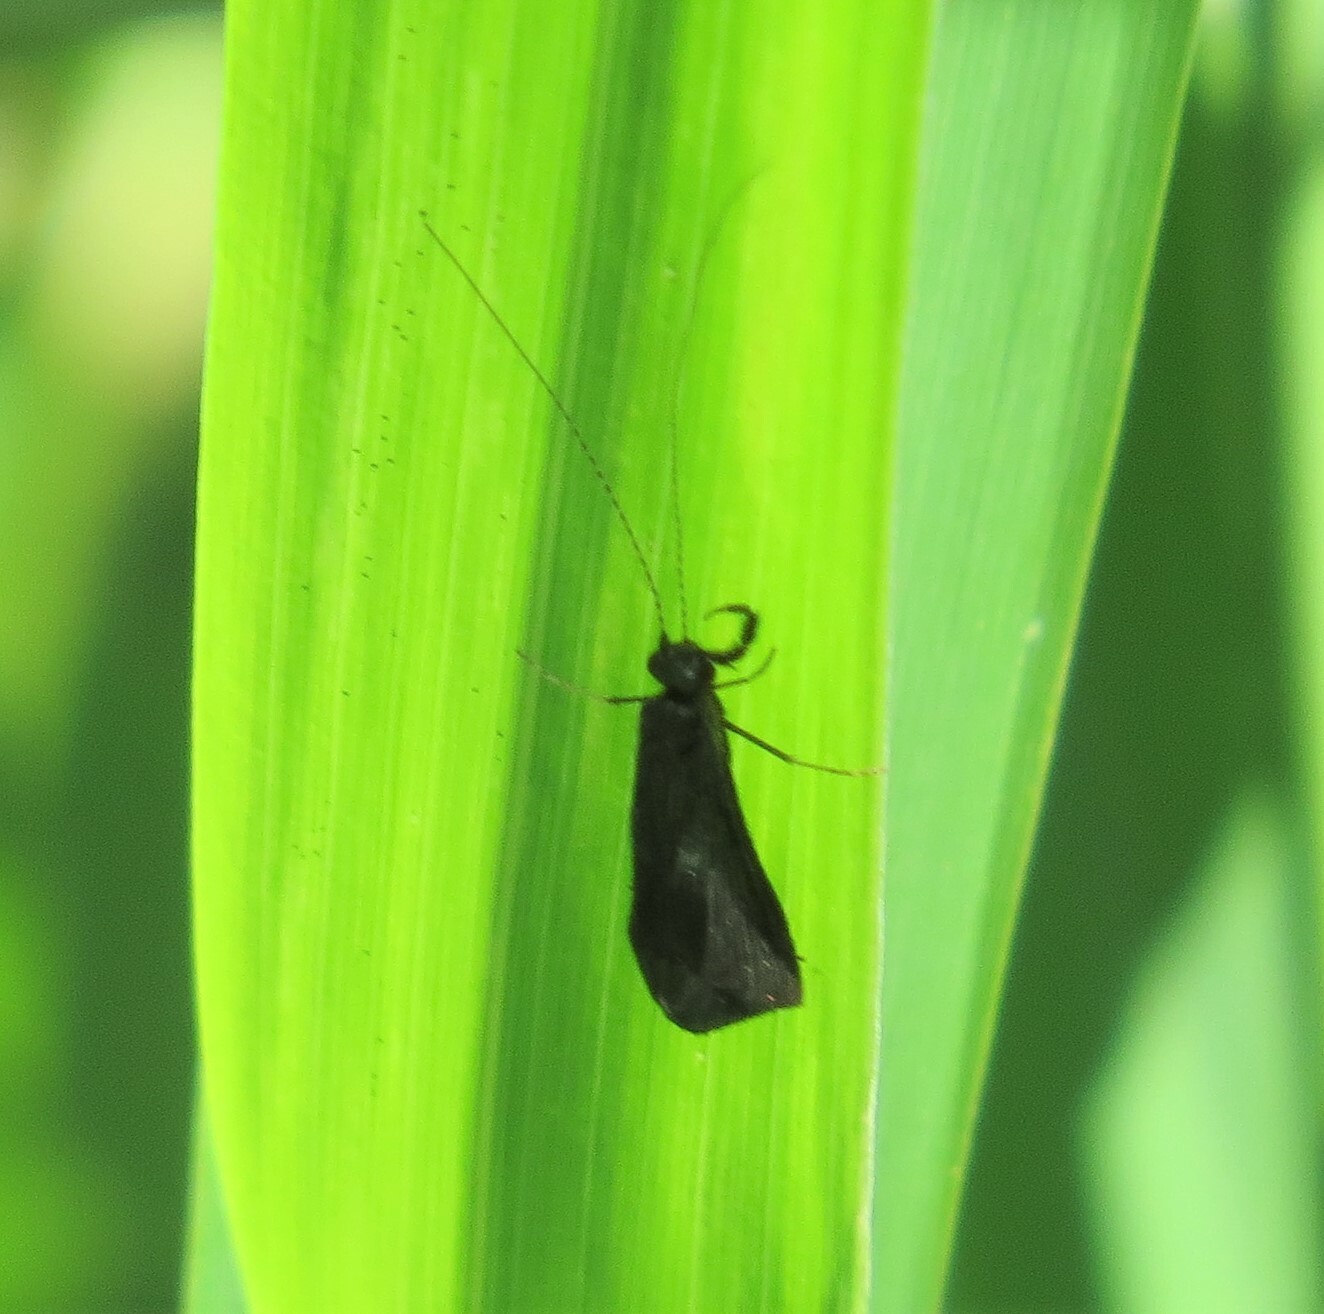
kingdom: Animalia
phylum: Arthropoda
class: Insecta
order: Trichoptera
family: Leptoceridae
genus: Mystacides
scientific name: Mystacides sepulchralis
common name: Black dancer caddisfly
